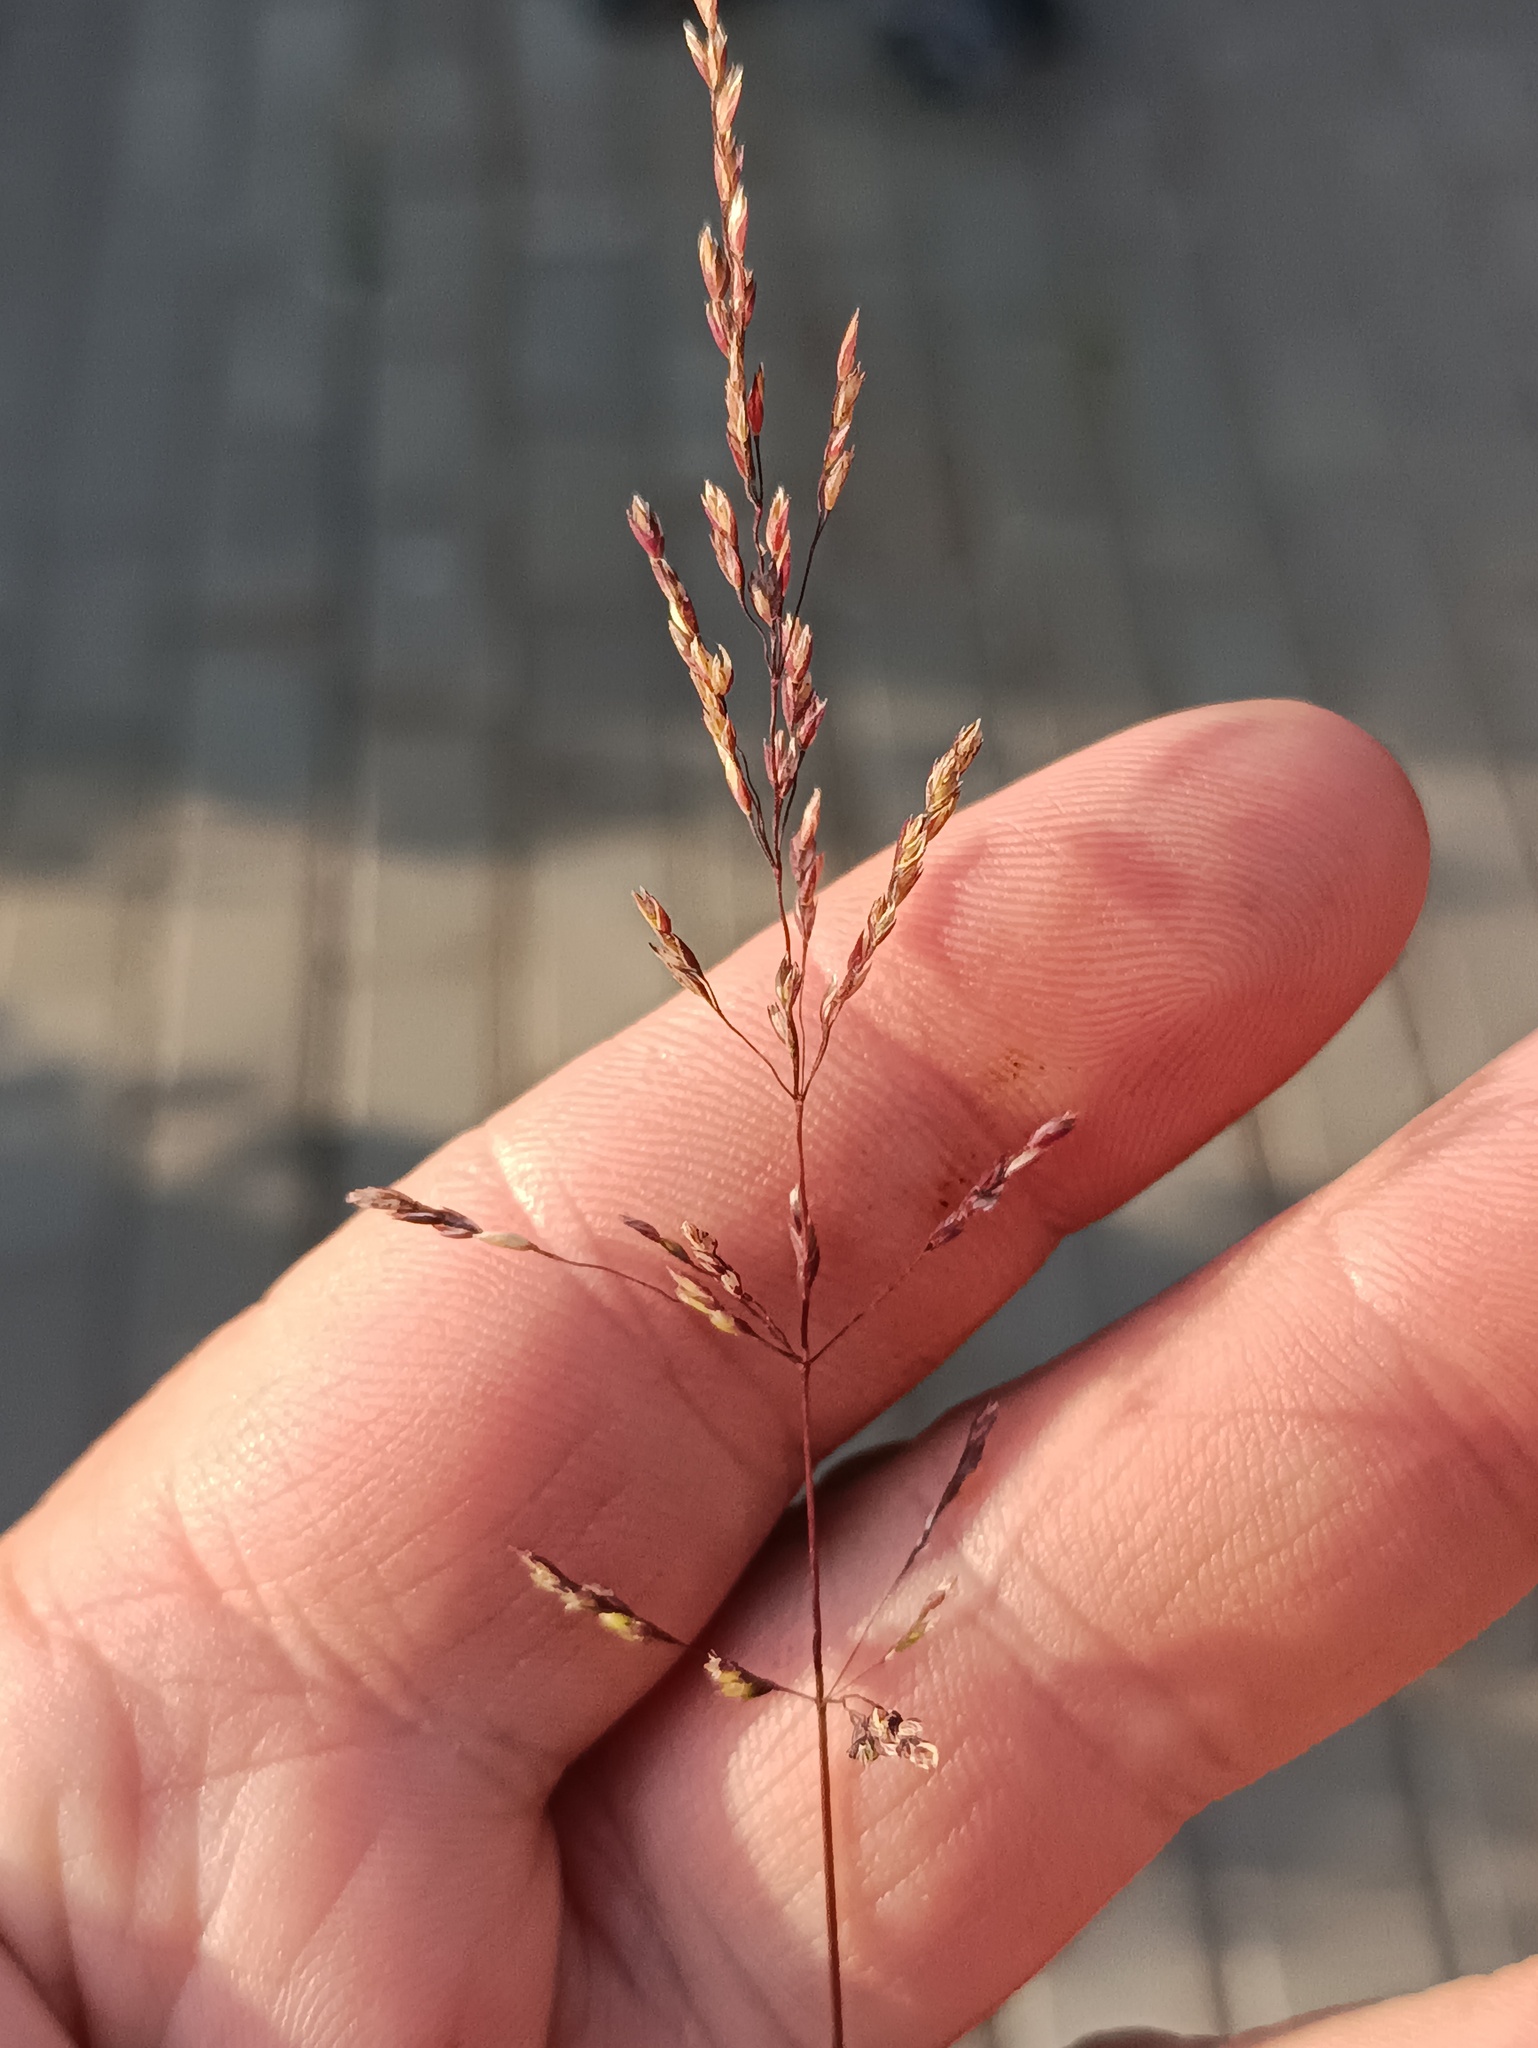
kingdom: Plantae
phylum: Tracheophyta
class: Liliopsida
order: Poales
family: Poaceae
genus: Puccinellia
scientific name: Puccinellia distans
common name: Weeping alkaligrass
